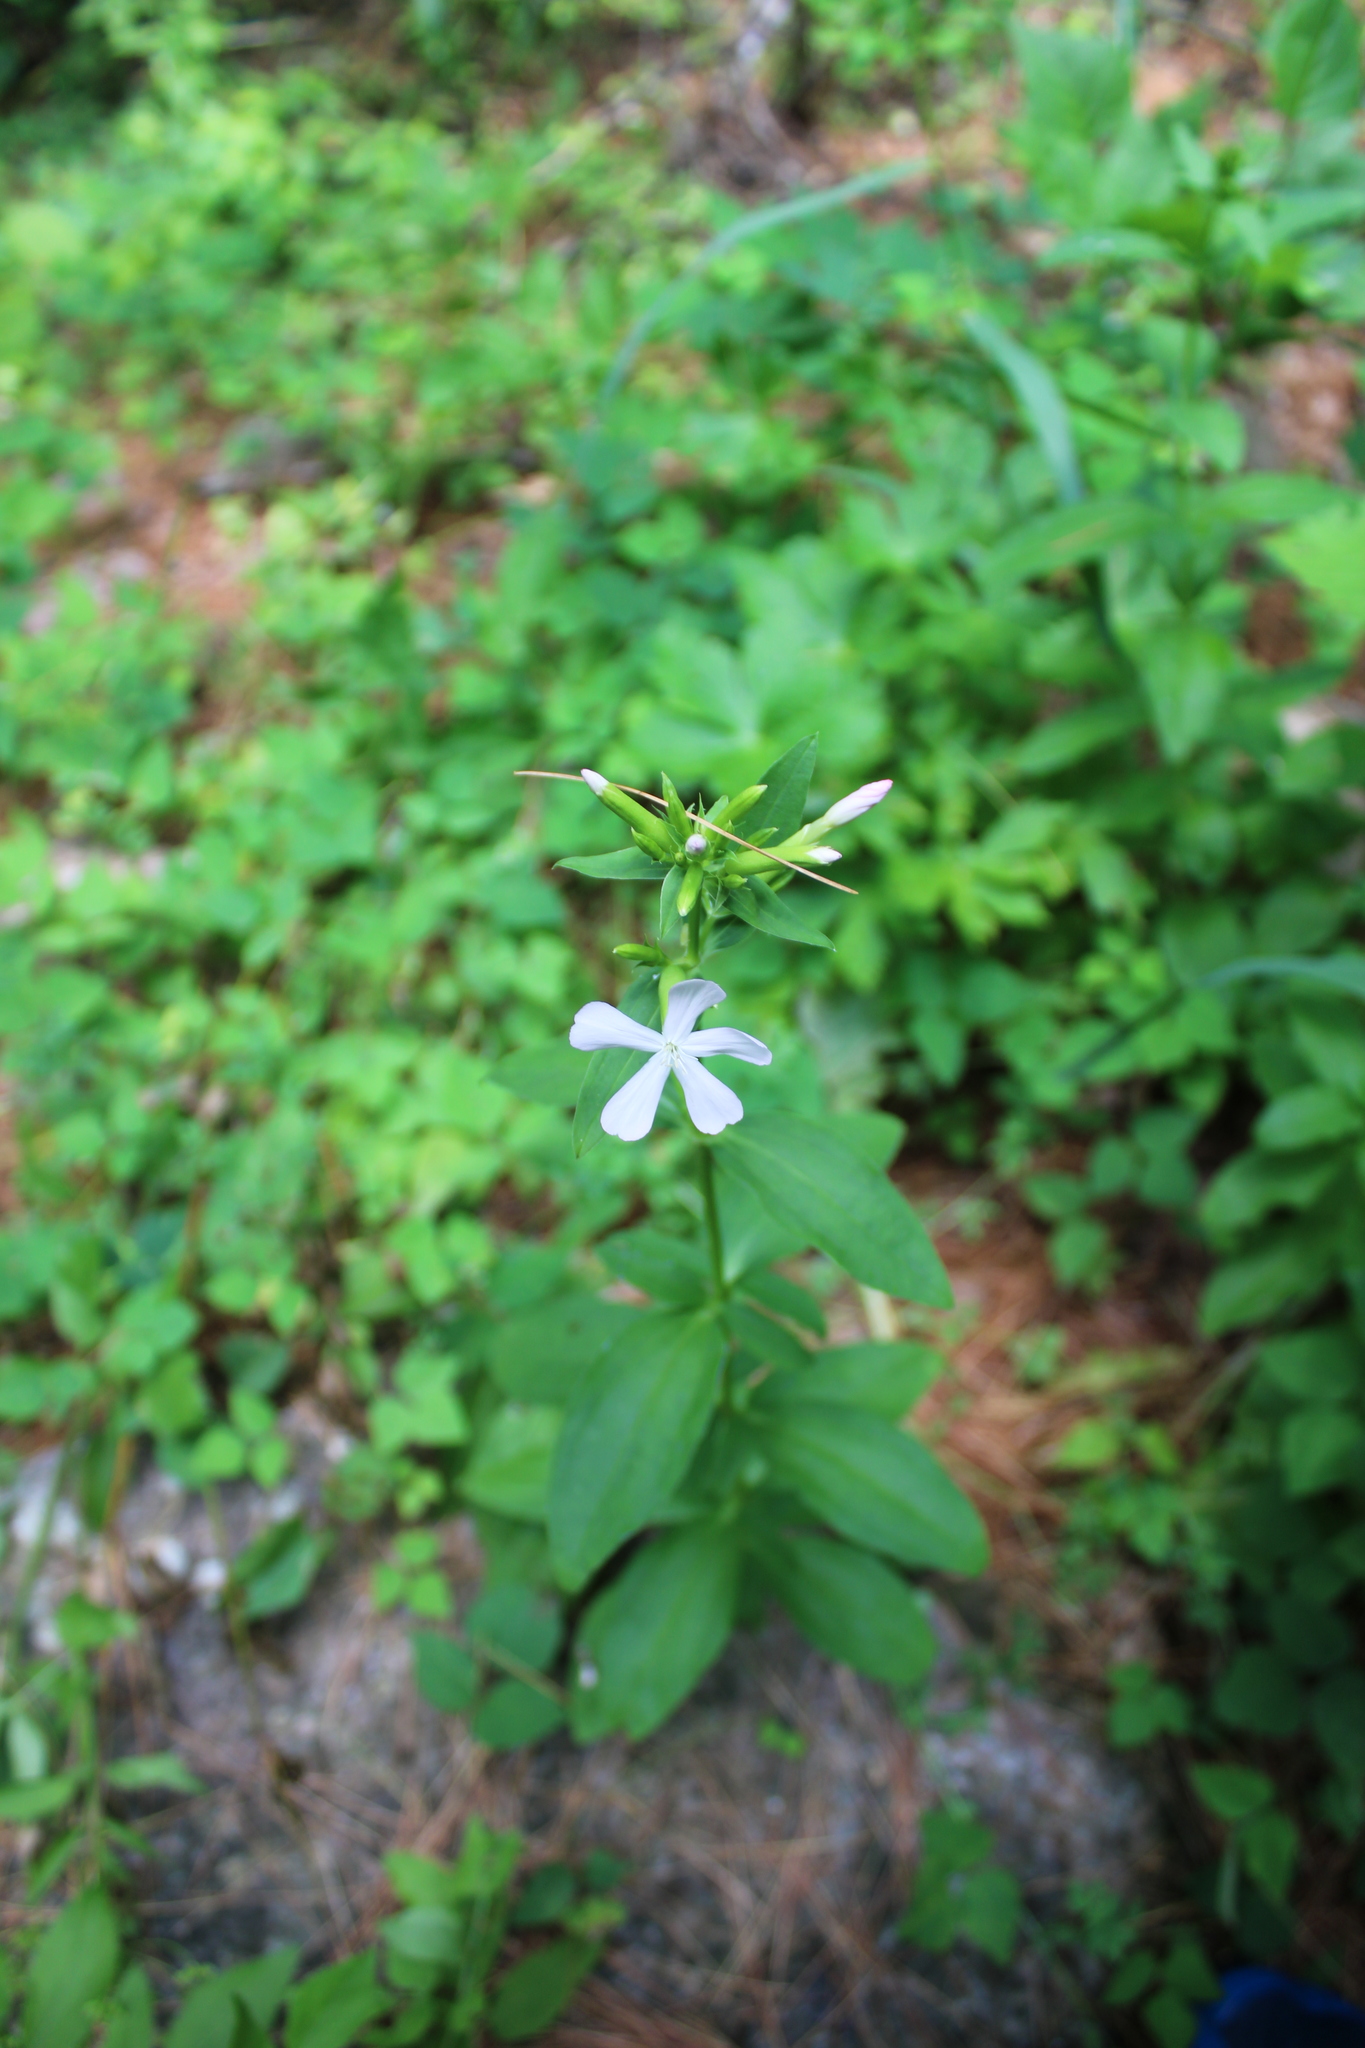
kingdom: Plantae
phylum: Tracheophyta
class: Magnoliopsida
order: Caryophyllales
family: Caryophyllaceae
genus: Saponaria
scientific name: Saponaria officinalis
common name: Soapwort
